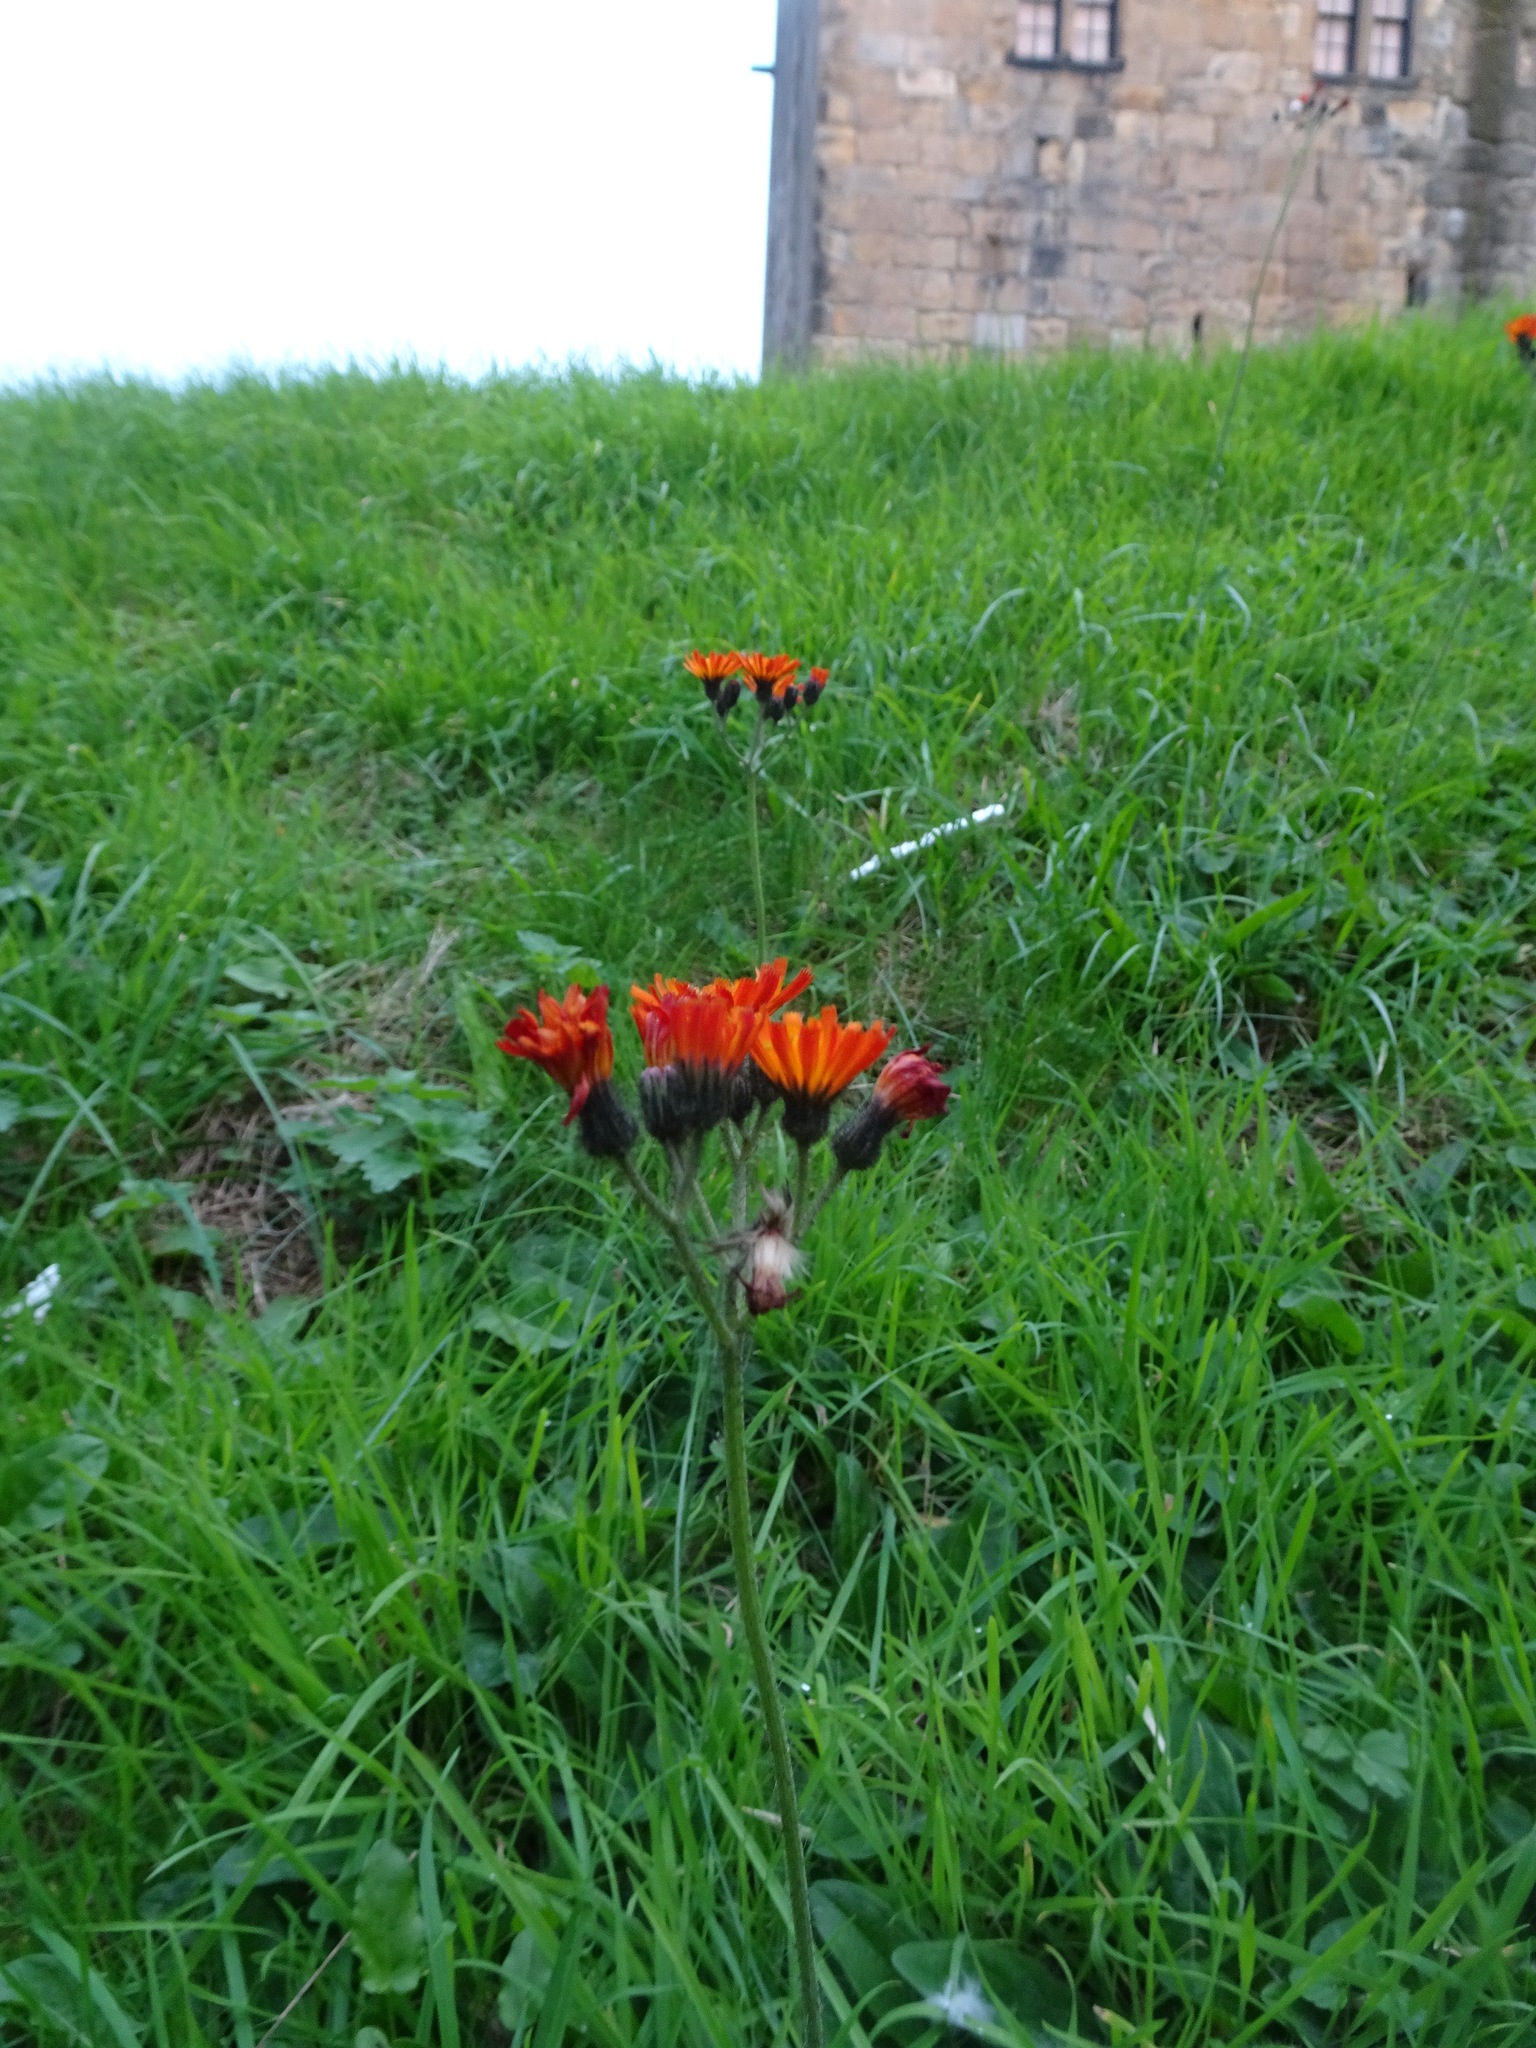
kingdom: Plantae
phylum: Tracheophyta
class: Magnoliopsida
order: Asterales
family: Asteraceae
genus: Pilosella
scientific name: Pilosella aurantiaca
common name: Fox-and-cubs
